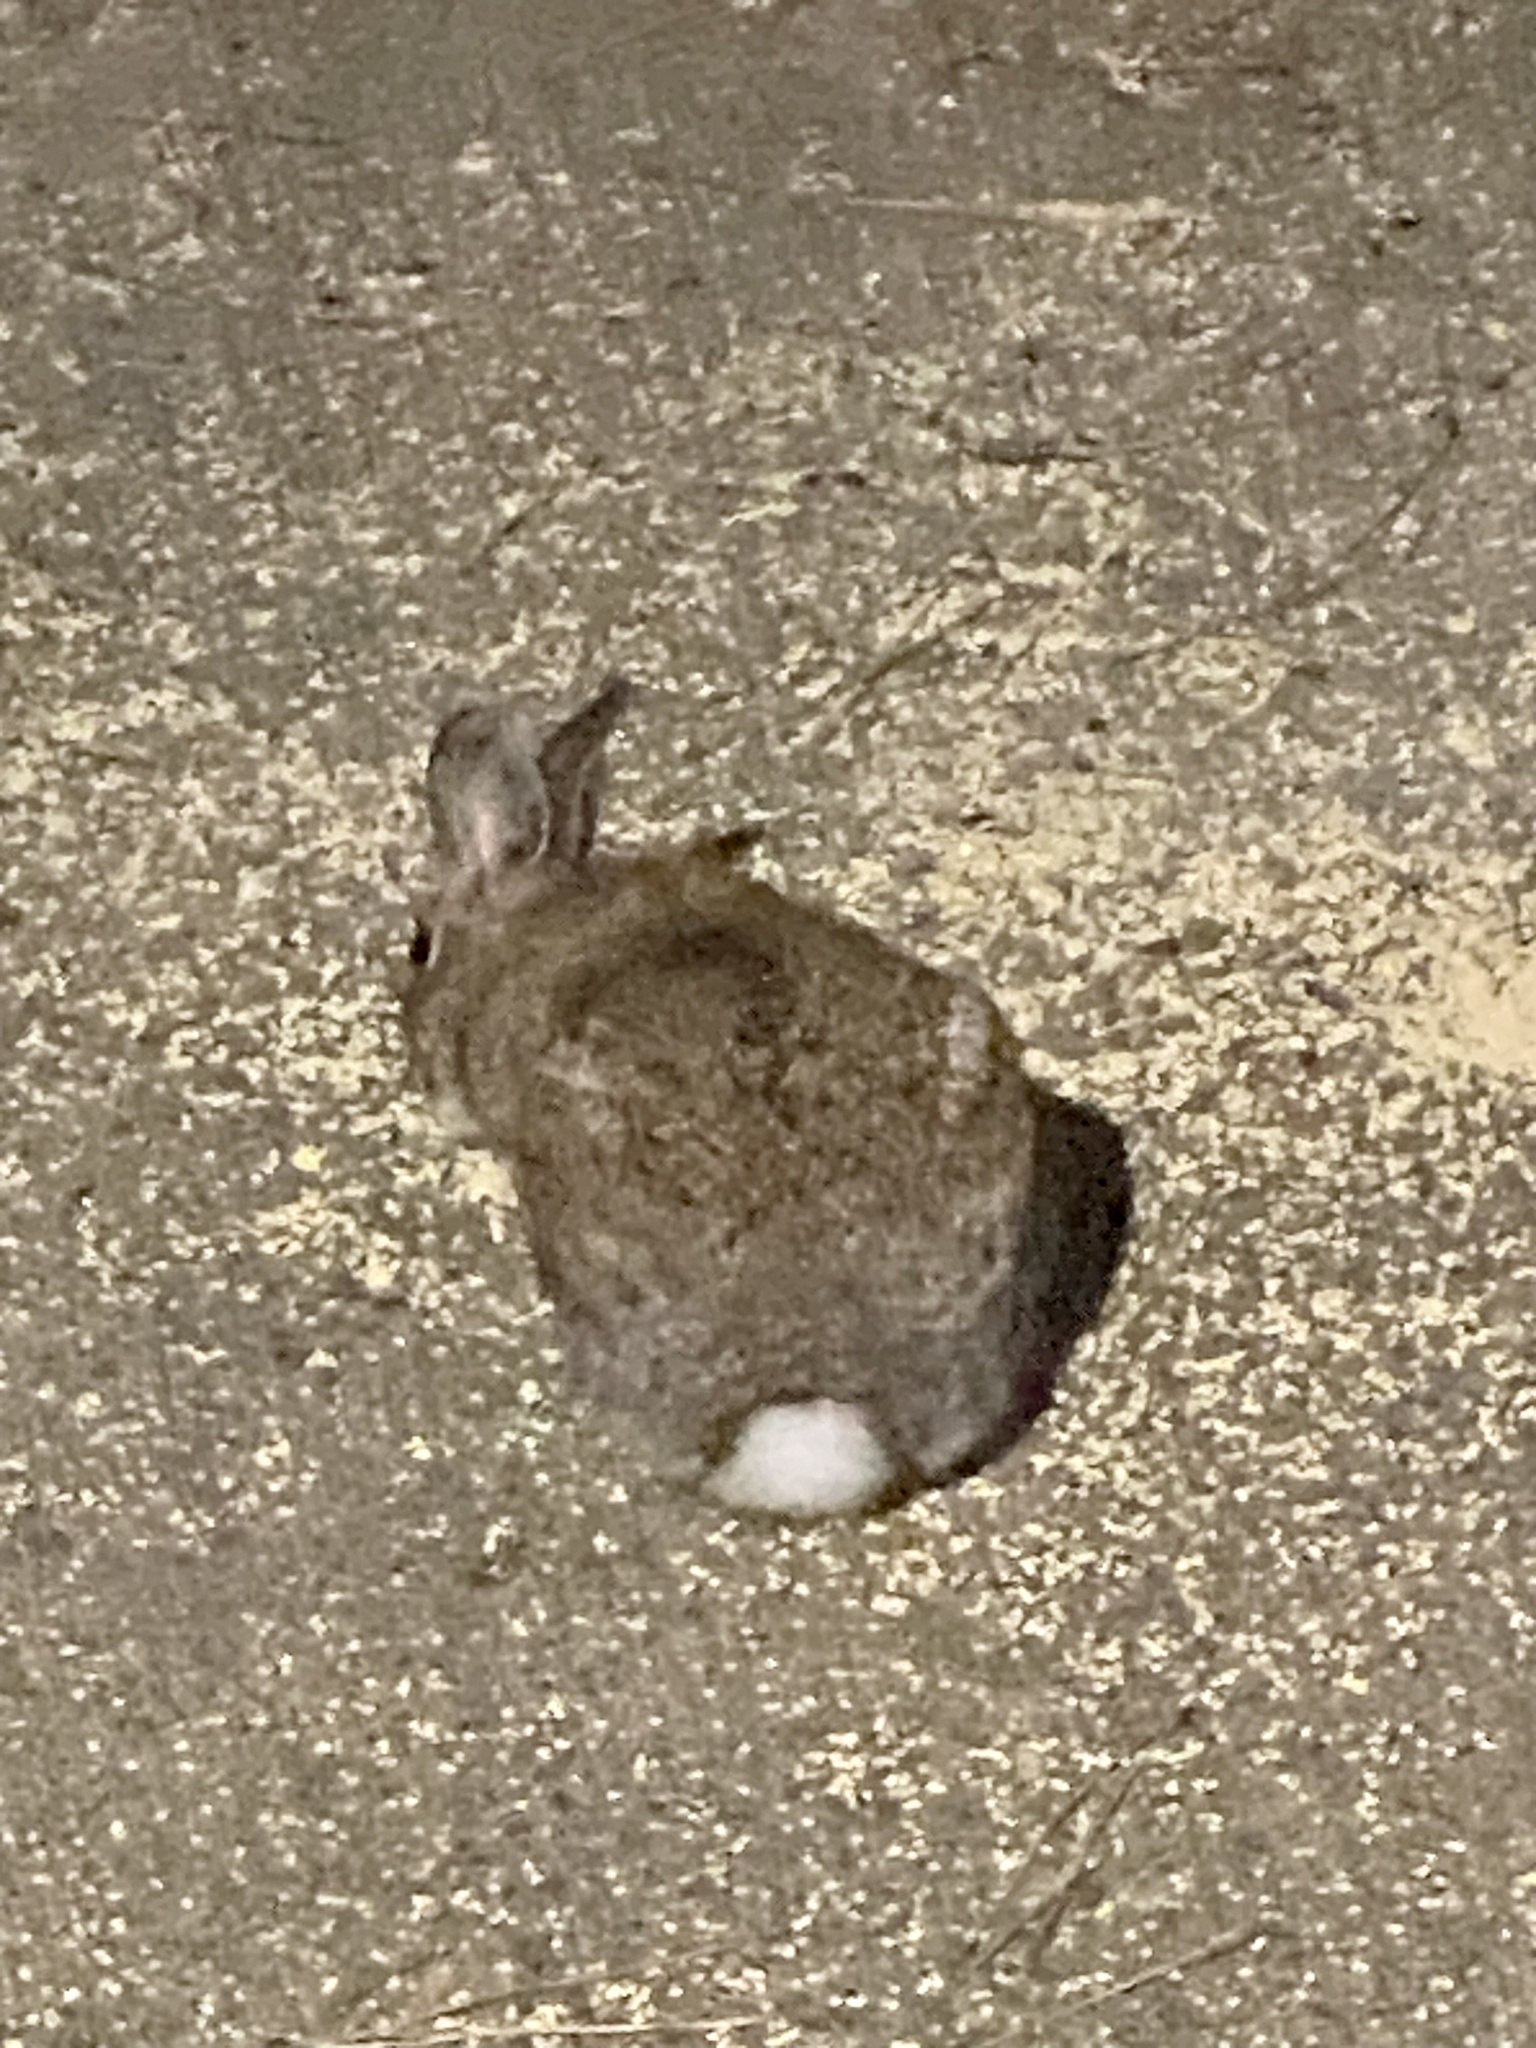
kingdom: Animalia
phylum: Chordata
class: Mammalia
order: Lagomorpha
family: Leporidae
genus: Sylvilagus
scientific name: Sylvilagus floridanus
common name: Eastern cottontail
